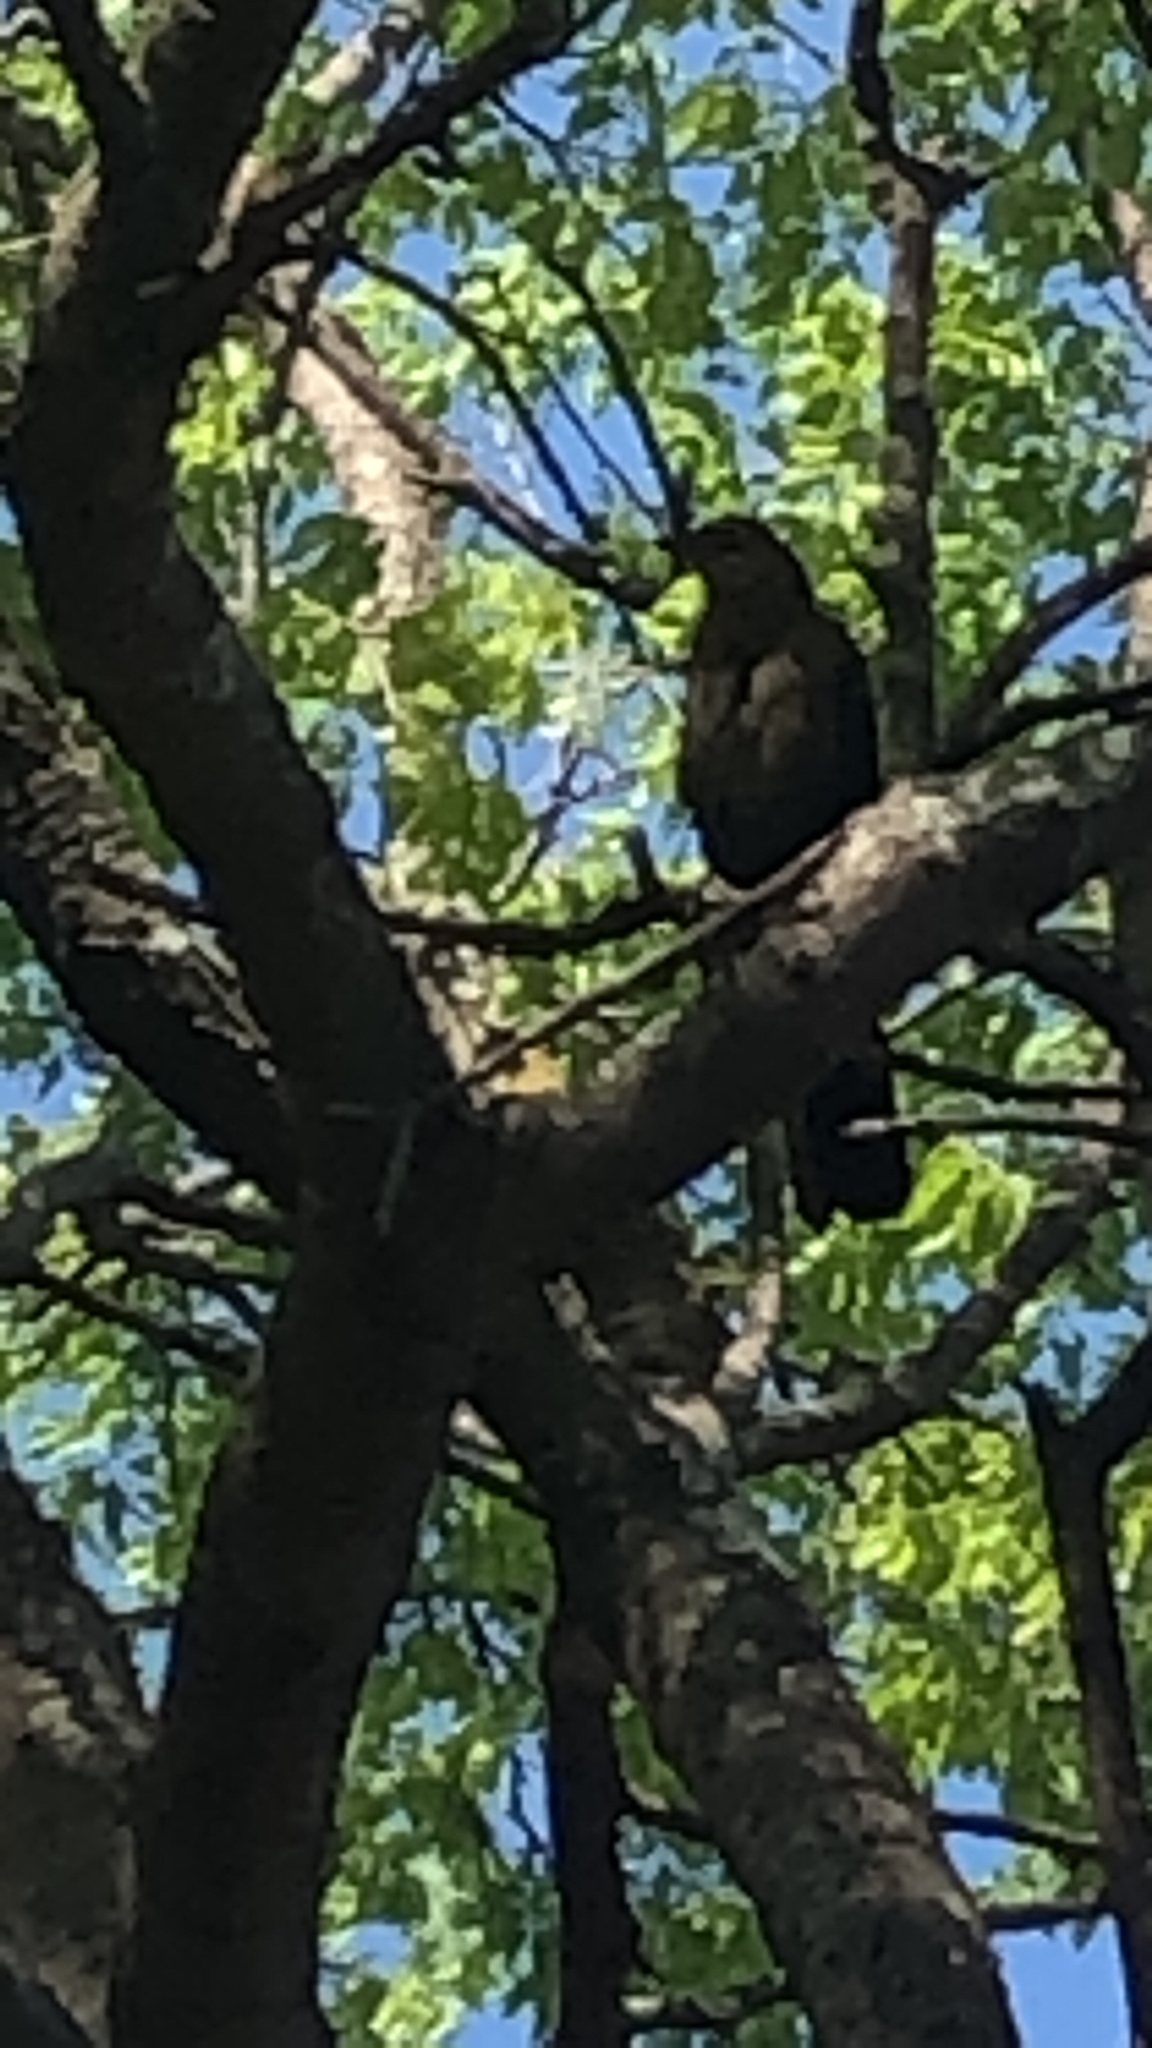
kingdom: Animalia
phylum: Chordata
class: Aves
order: Passeriformes
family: Icteridae
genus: Quiscalus
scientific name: Quiscalus mexicanus
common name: Great-tailed grackle
